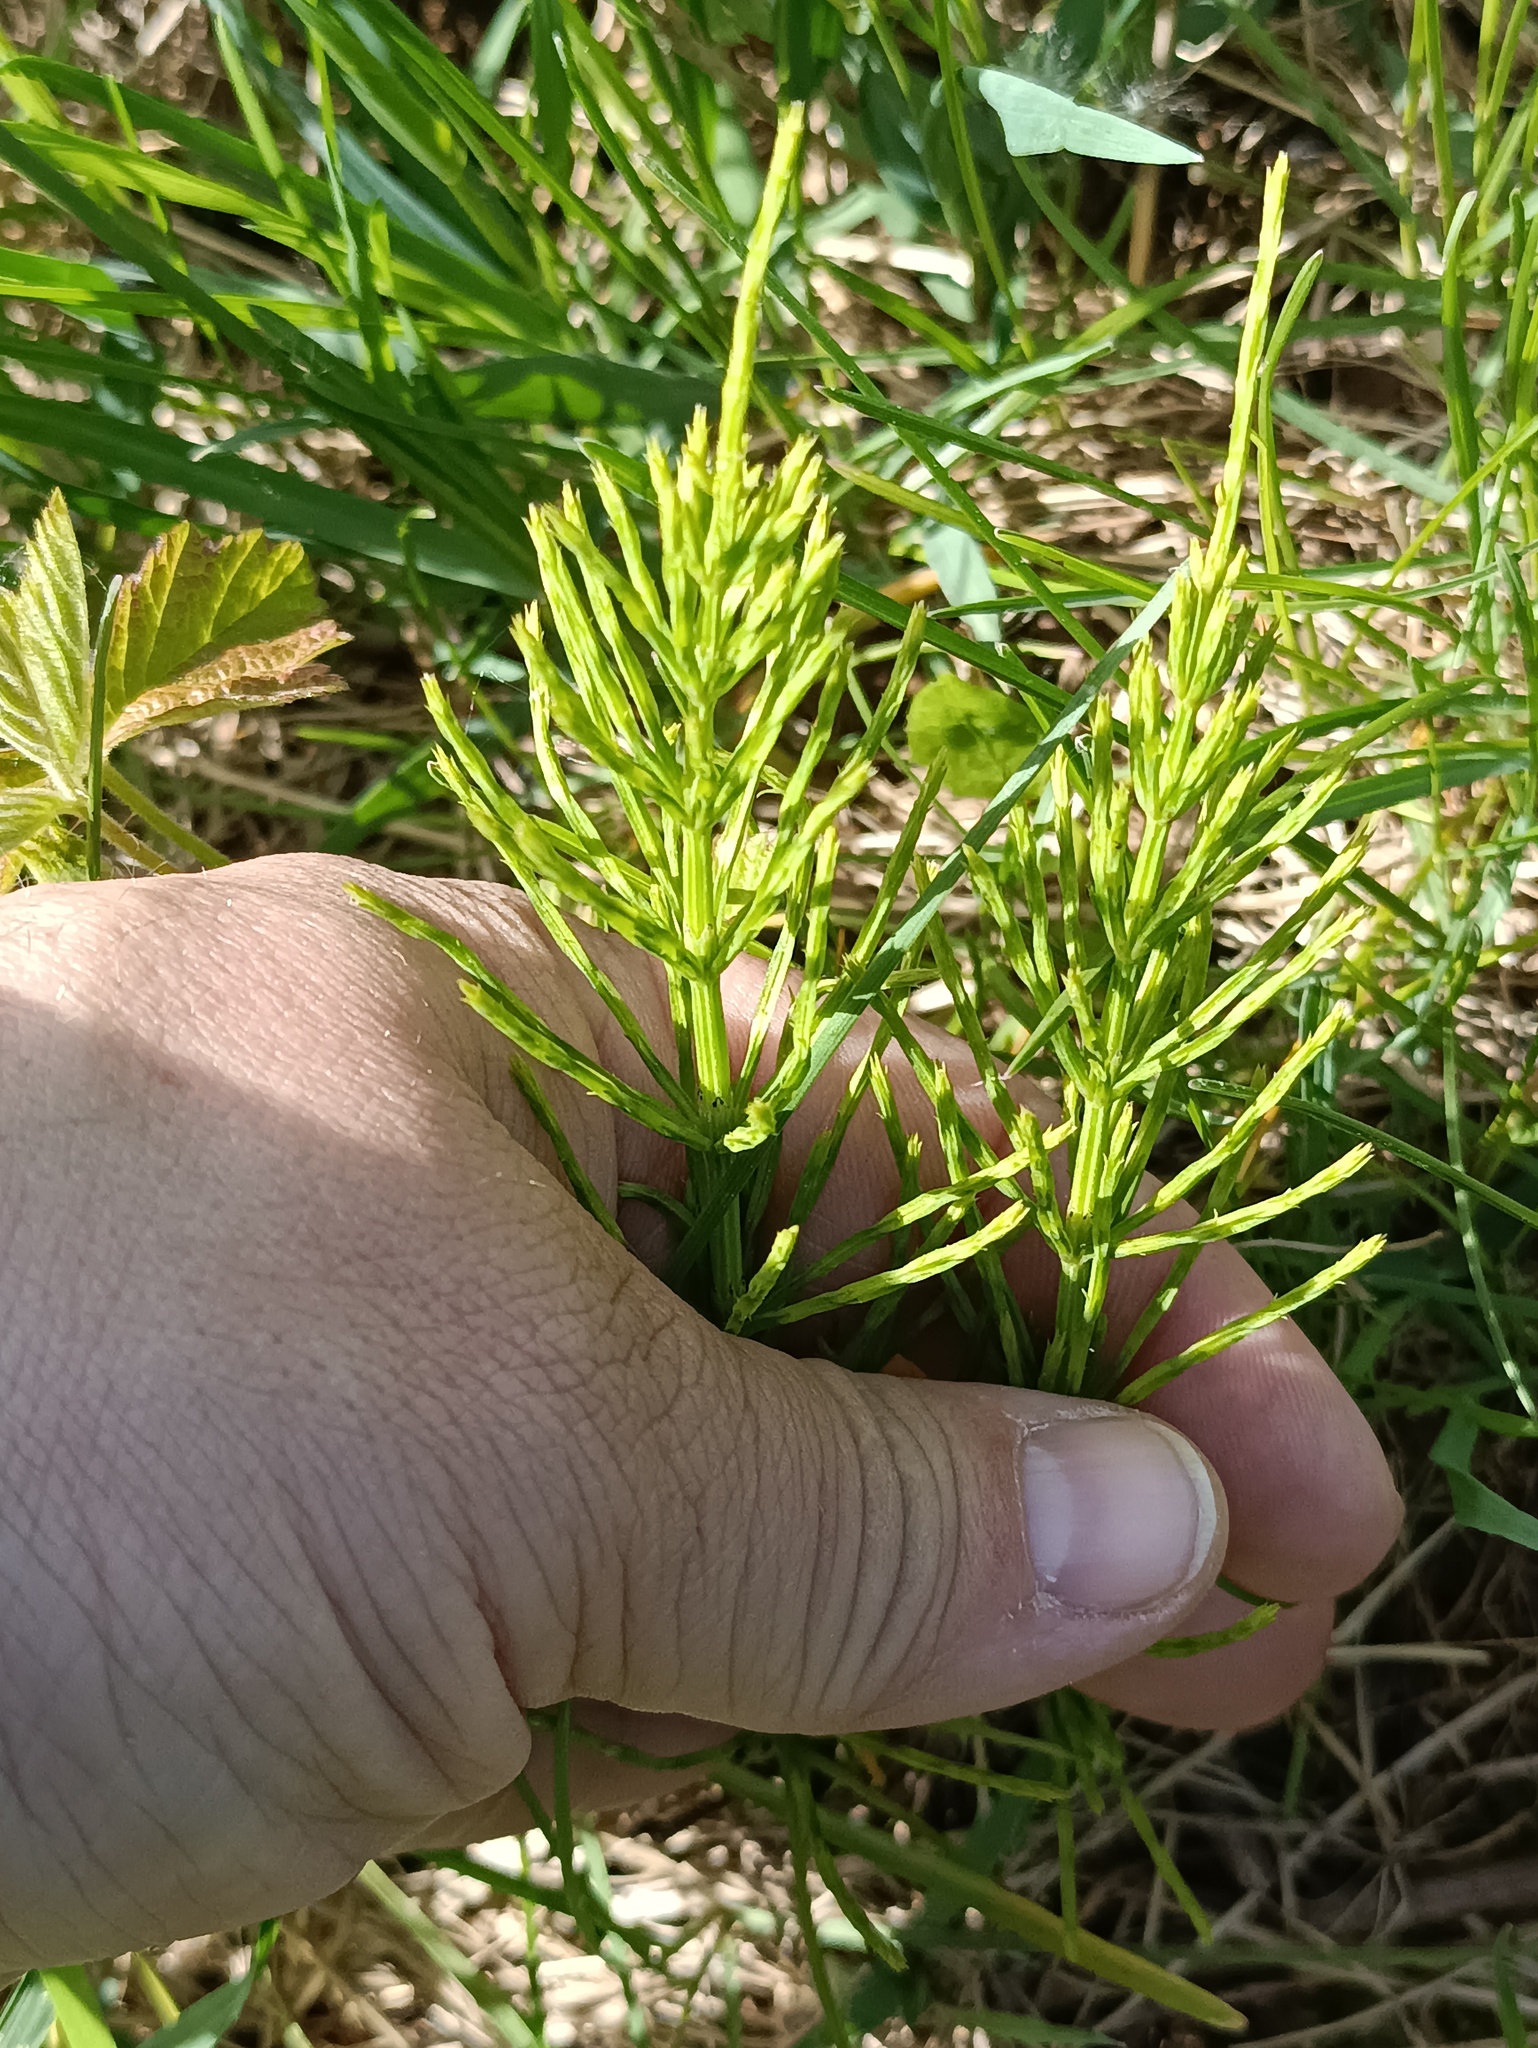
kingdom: Plantae
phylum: Tracheophyta
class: Polypodiopsida
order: Equisetales
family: Equisetaceae
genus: Equisetum
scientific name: Equisetum arvense
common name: Field horsetail
